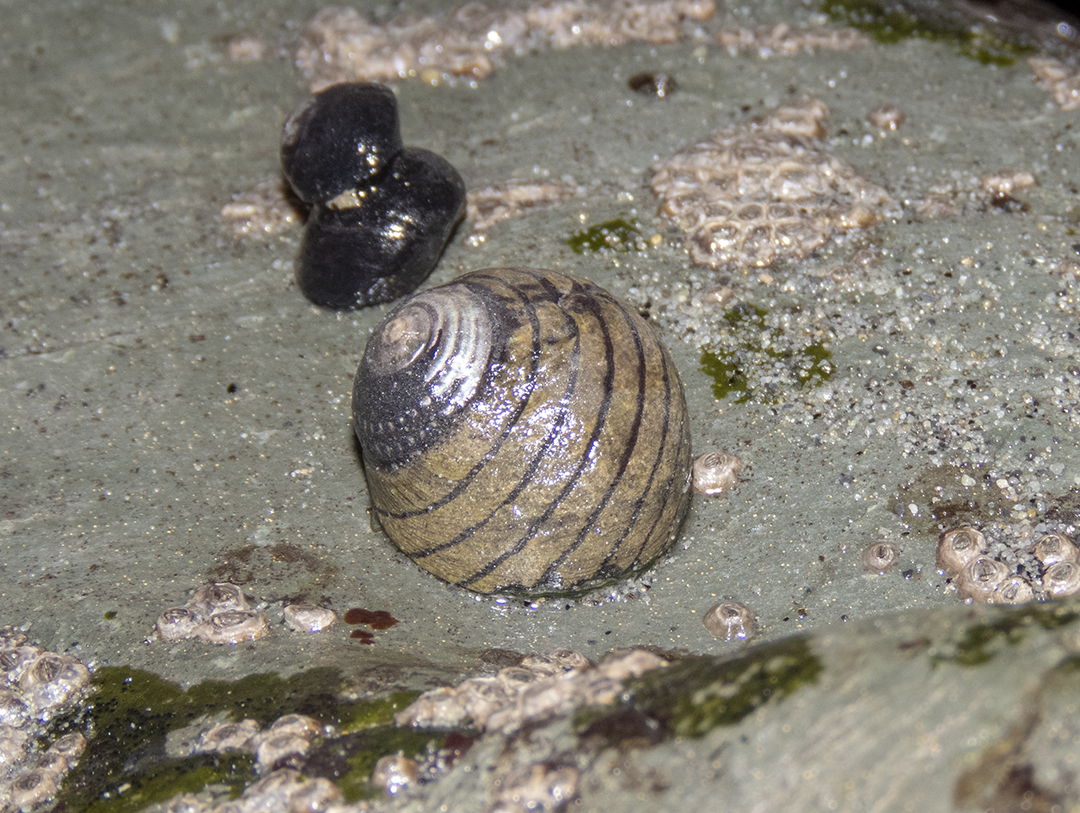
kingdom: Animalia
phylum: Mollusca
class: Gastropoda
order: Trochida
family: Trochidae
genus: Diloma
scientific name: Diloma aethiops
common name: Scorched monodont
